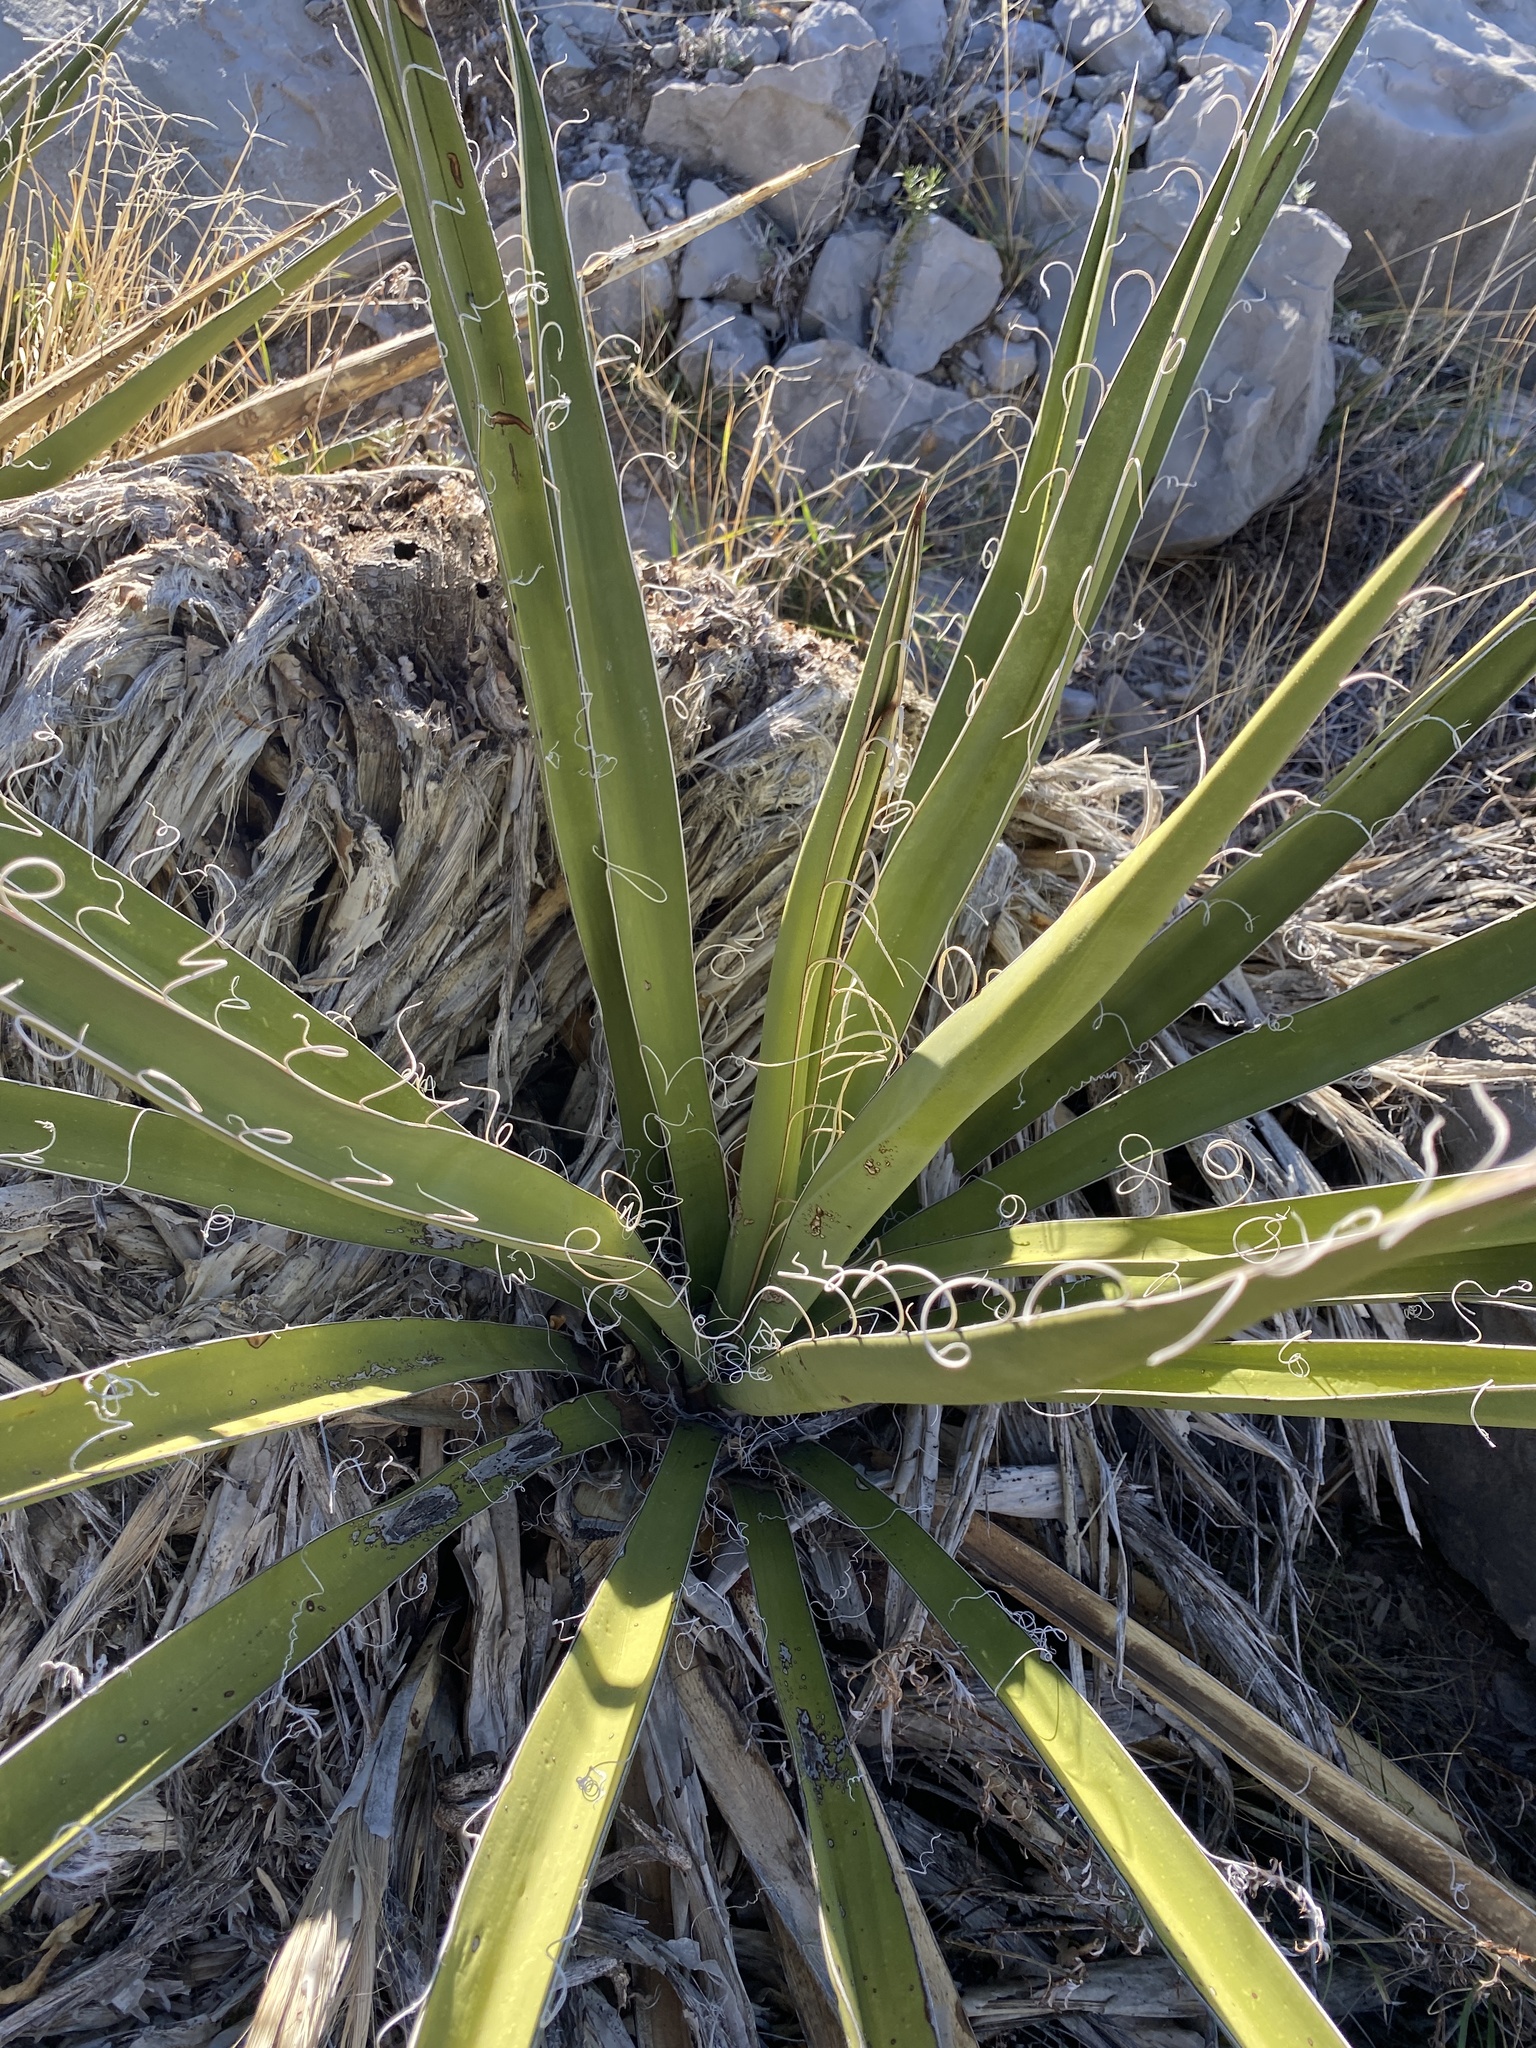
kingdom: Plantae
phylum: Tracheophyta
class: Liliopsida
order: Asparagales
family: Asparagaceae
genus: Yucca
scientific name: Yucca baccata
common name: Banana yucca
